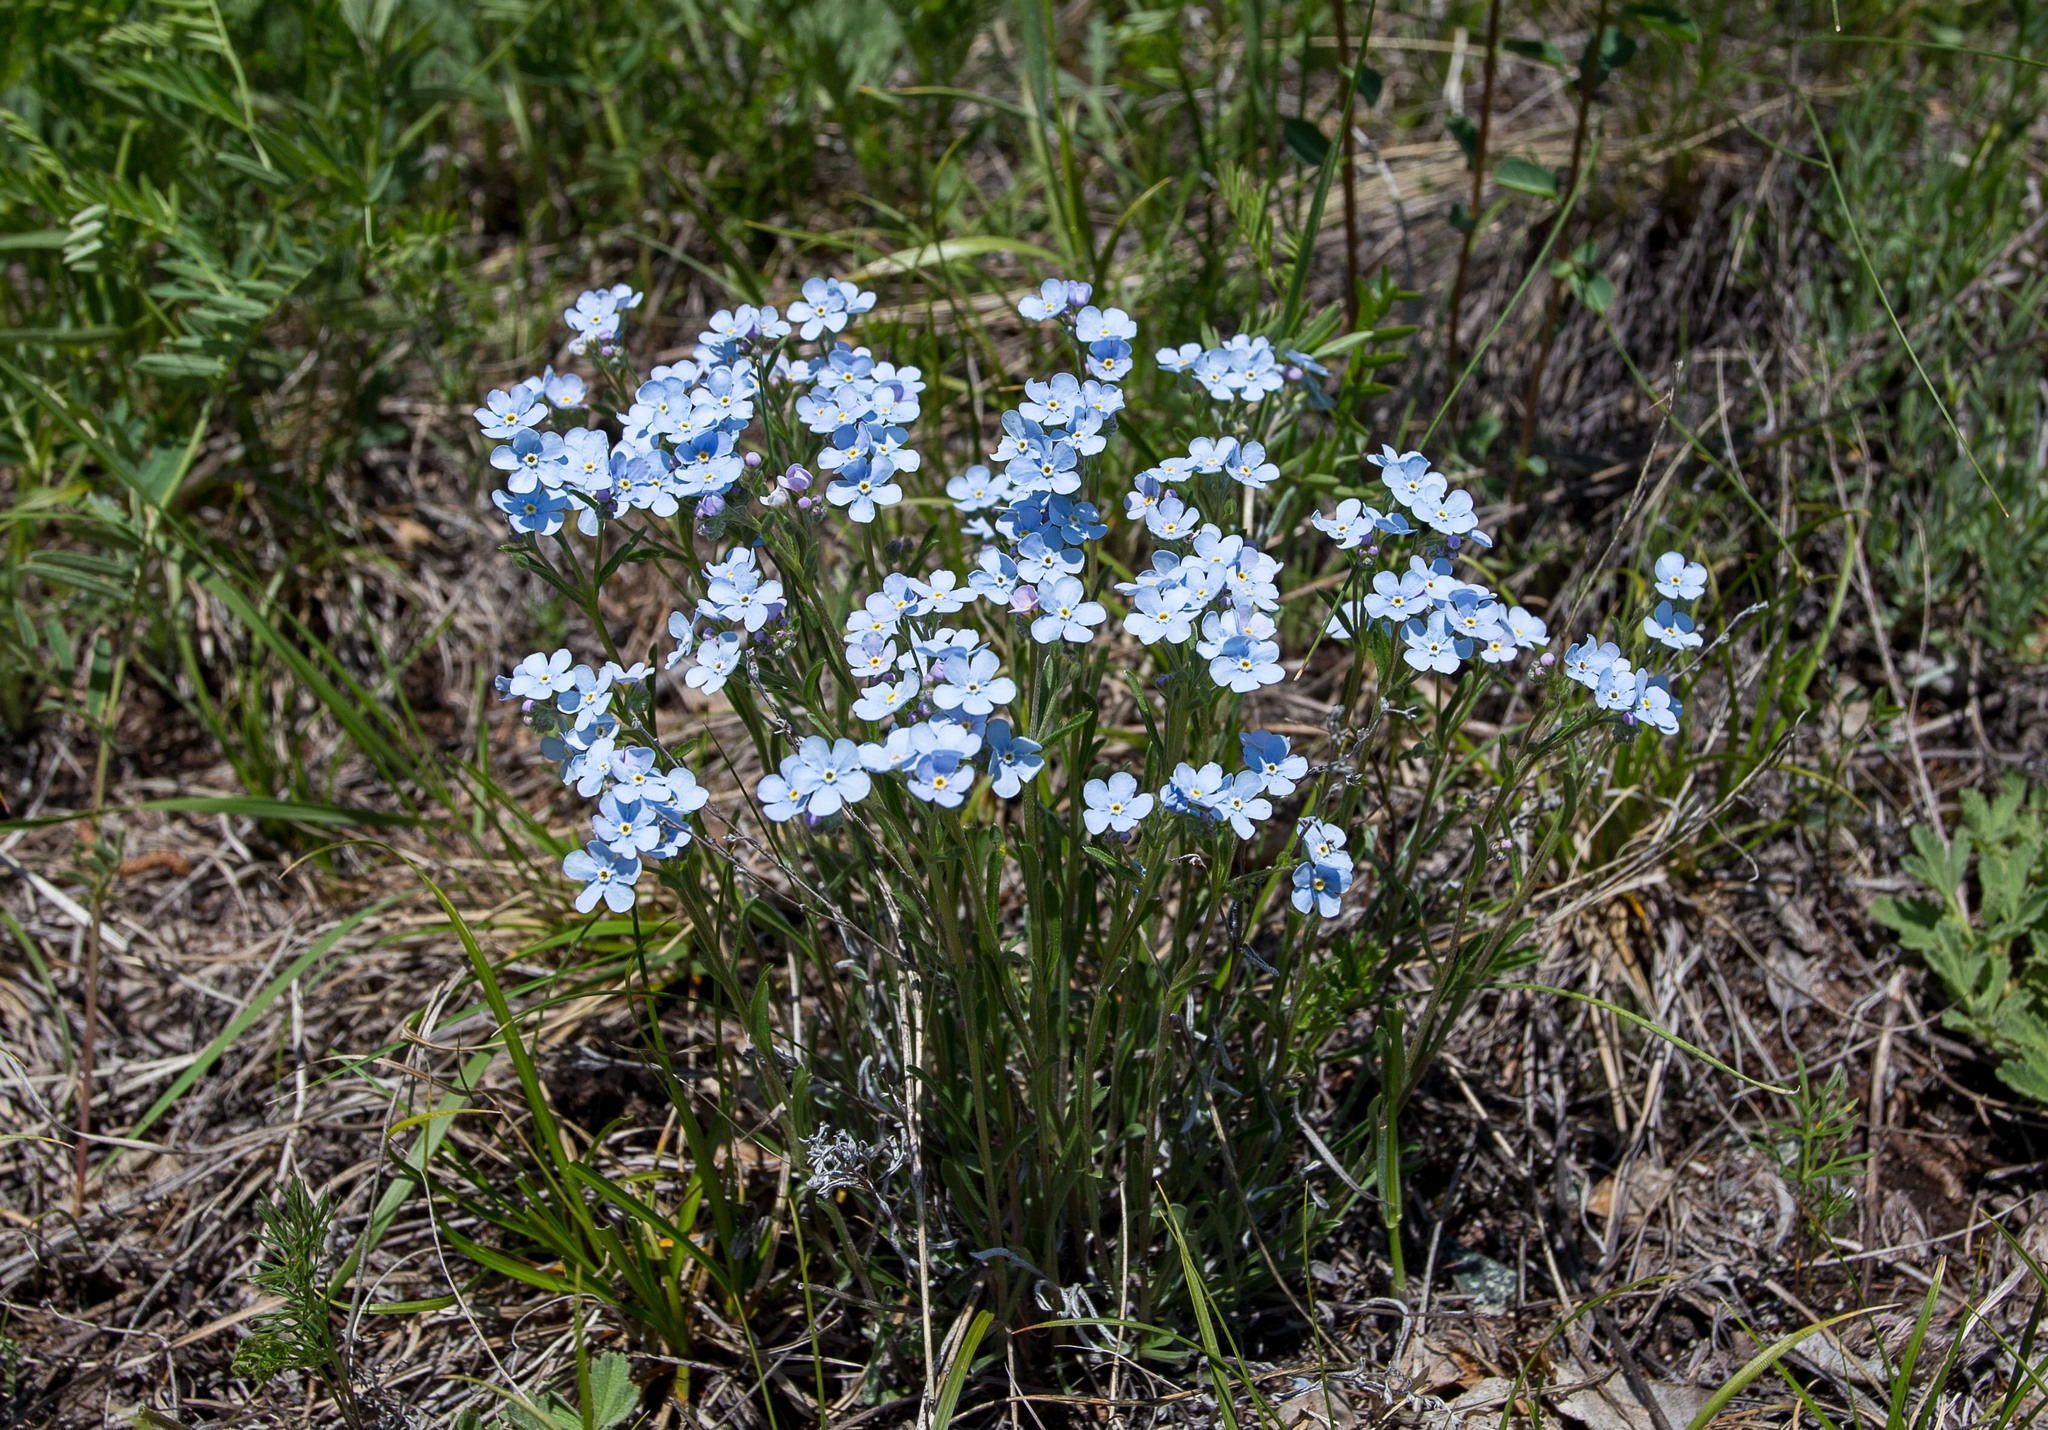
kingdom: Plantae
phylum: Tracheophyta
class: Magnoliopsida
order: Boraginales
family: Boraginaceae
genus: Eritrichium
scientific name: Eritrichium rupestre
